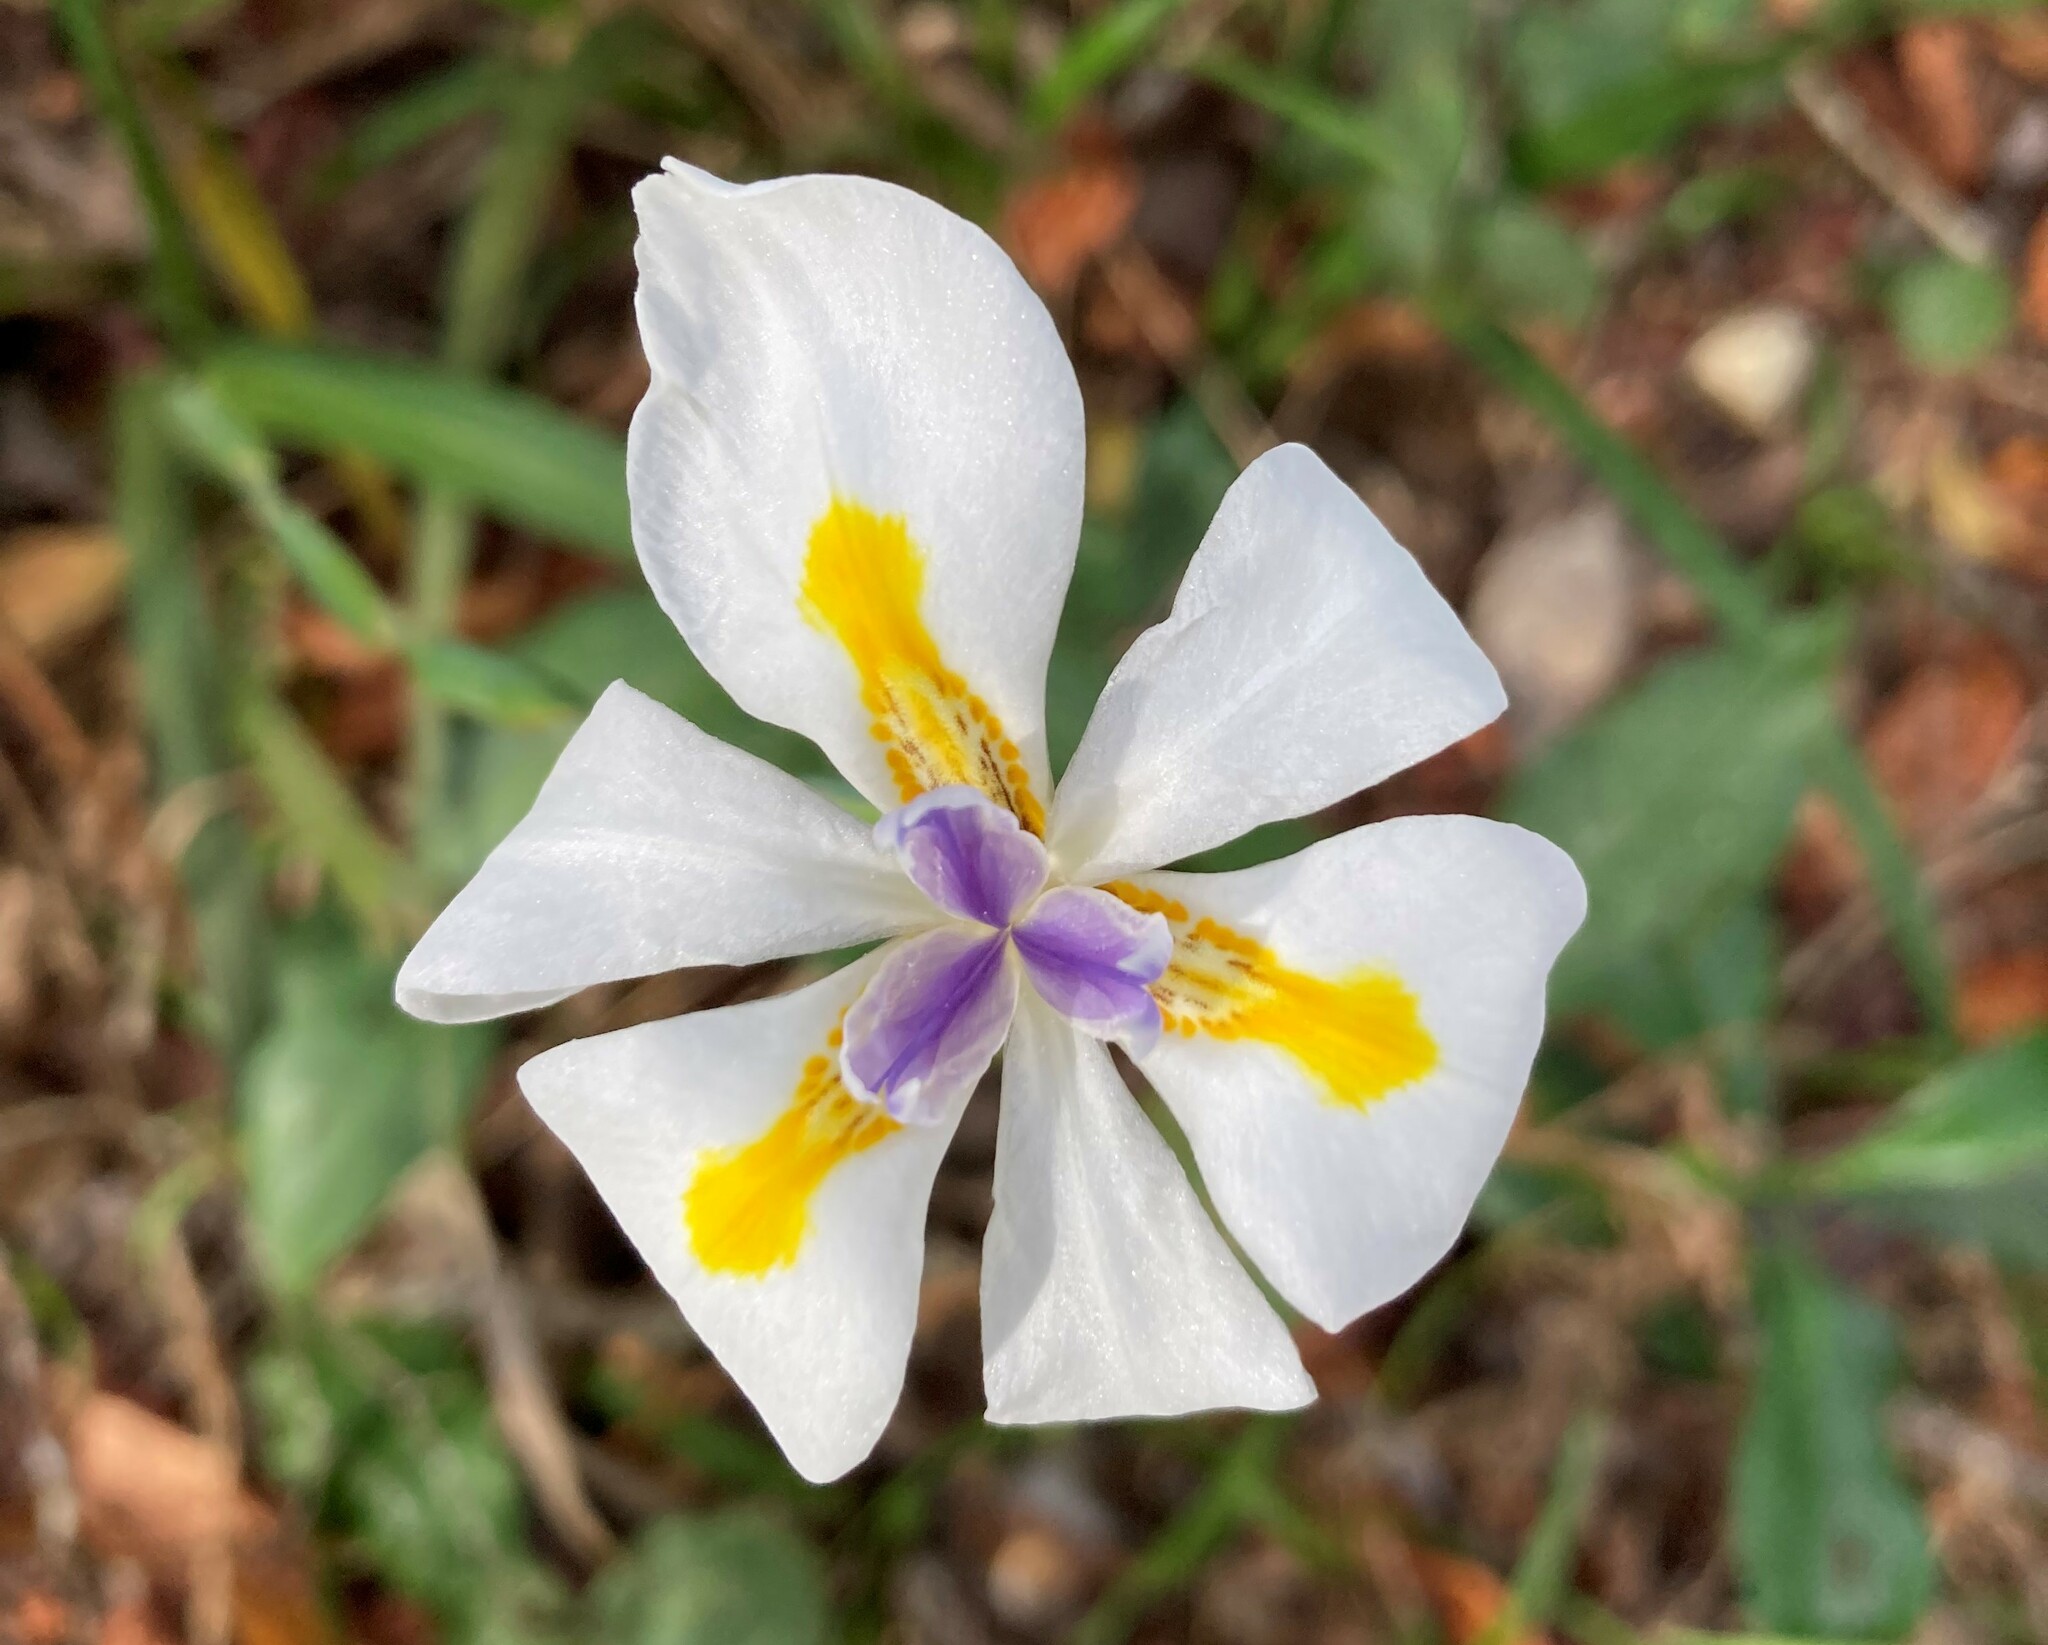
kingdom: Plantae
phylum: Tracheophyta
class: Liliopsida
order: Asparagales
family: Iridaceae
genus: Dietes
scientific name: Dietes iridioides
